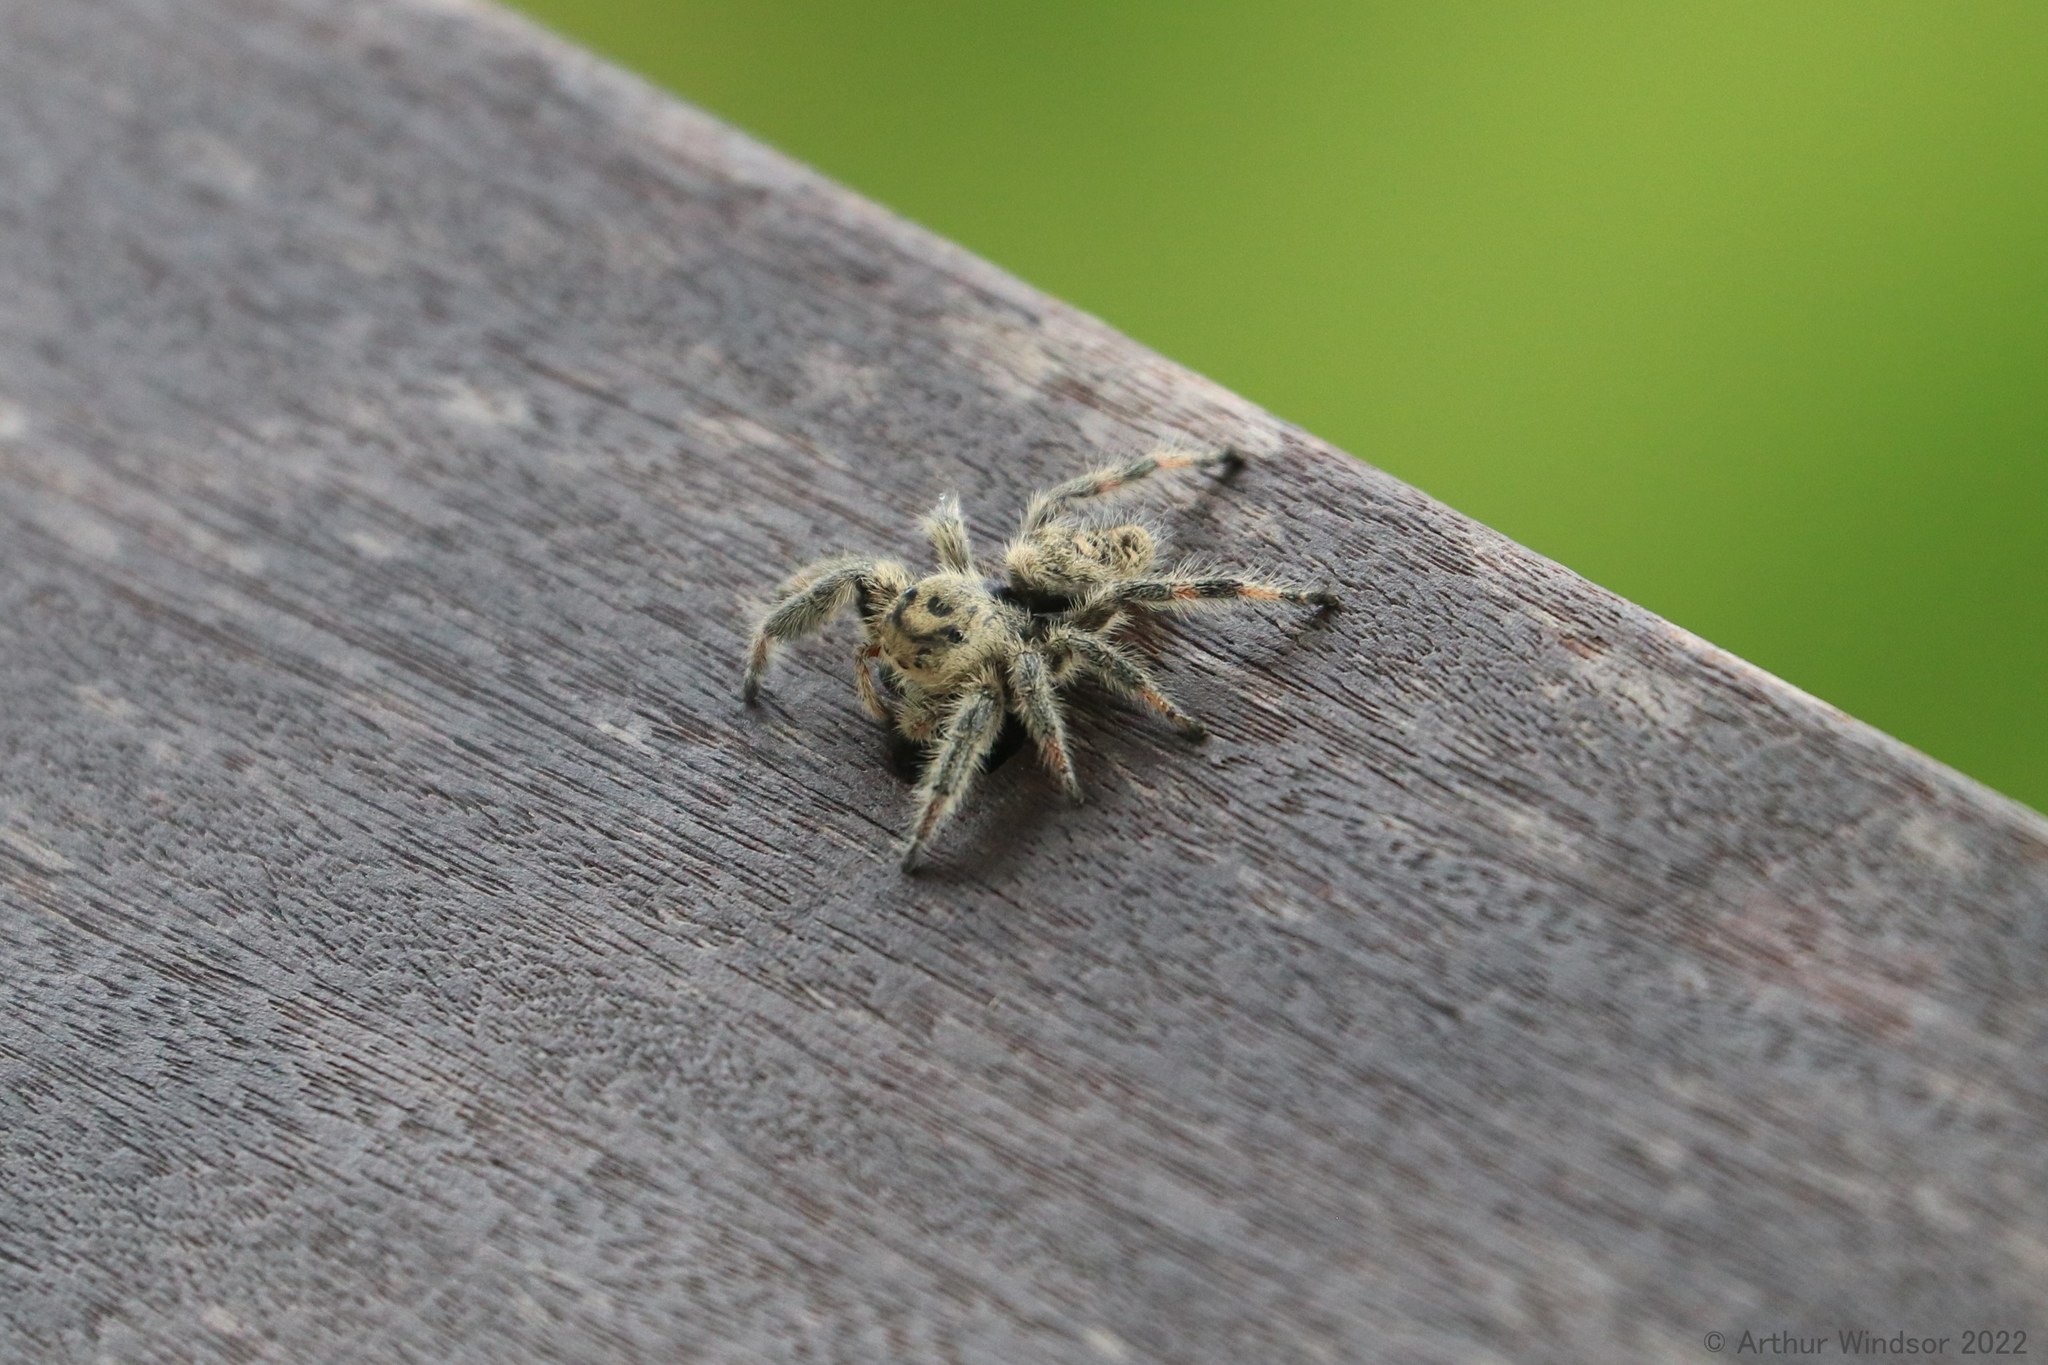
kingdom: Animalia
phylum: Arthropoda
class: Arachnida
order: Araneae
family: Salticidae
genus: Phidippus
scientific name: Phidippus regius
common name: Regal jumper
